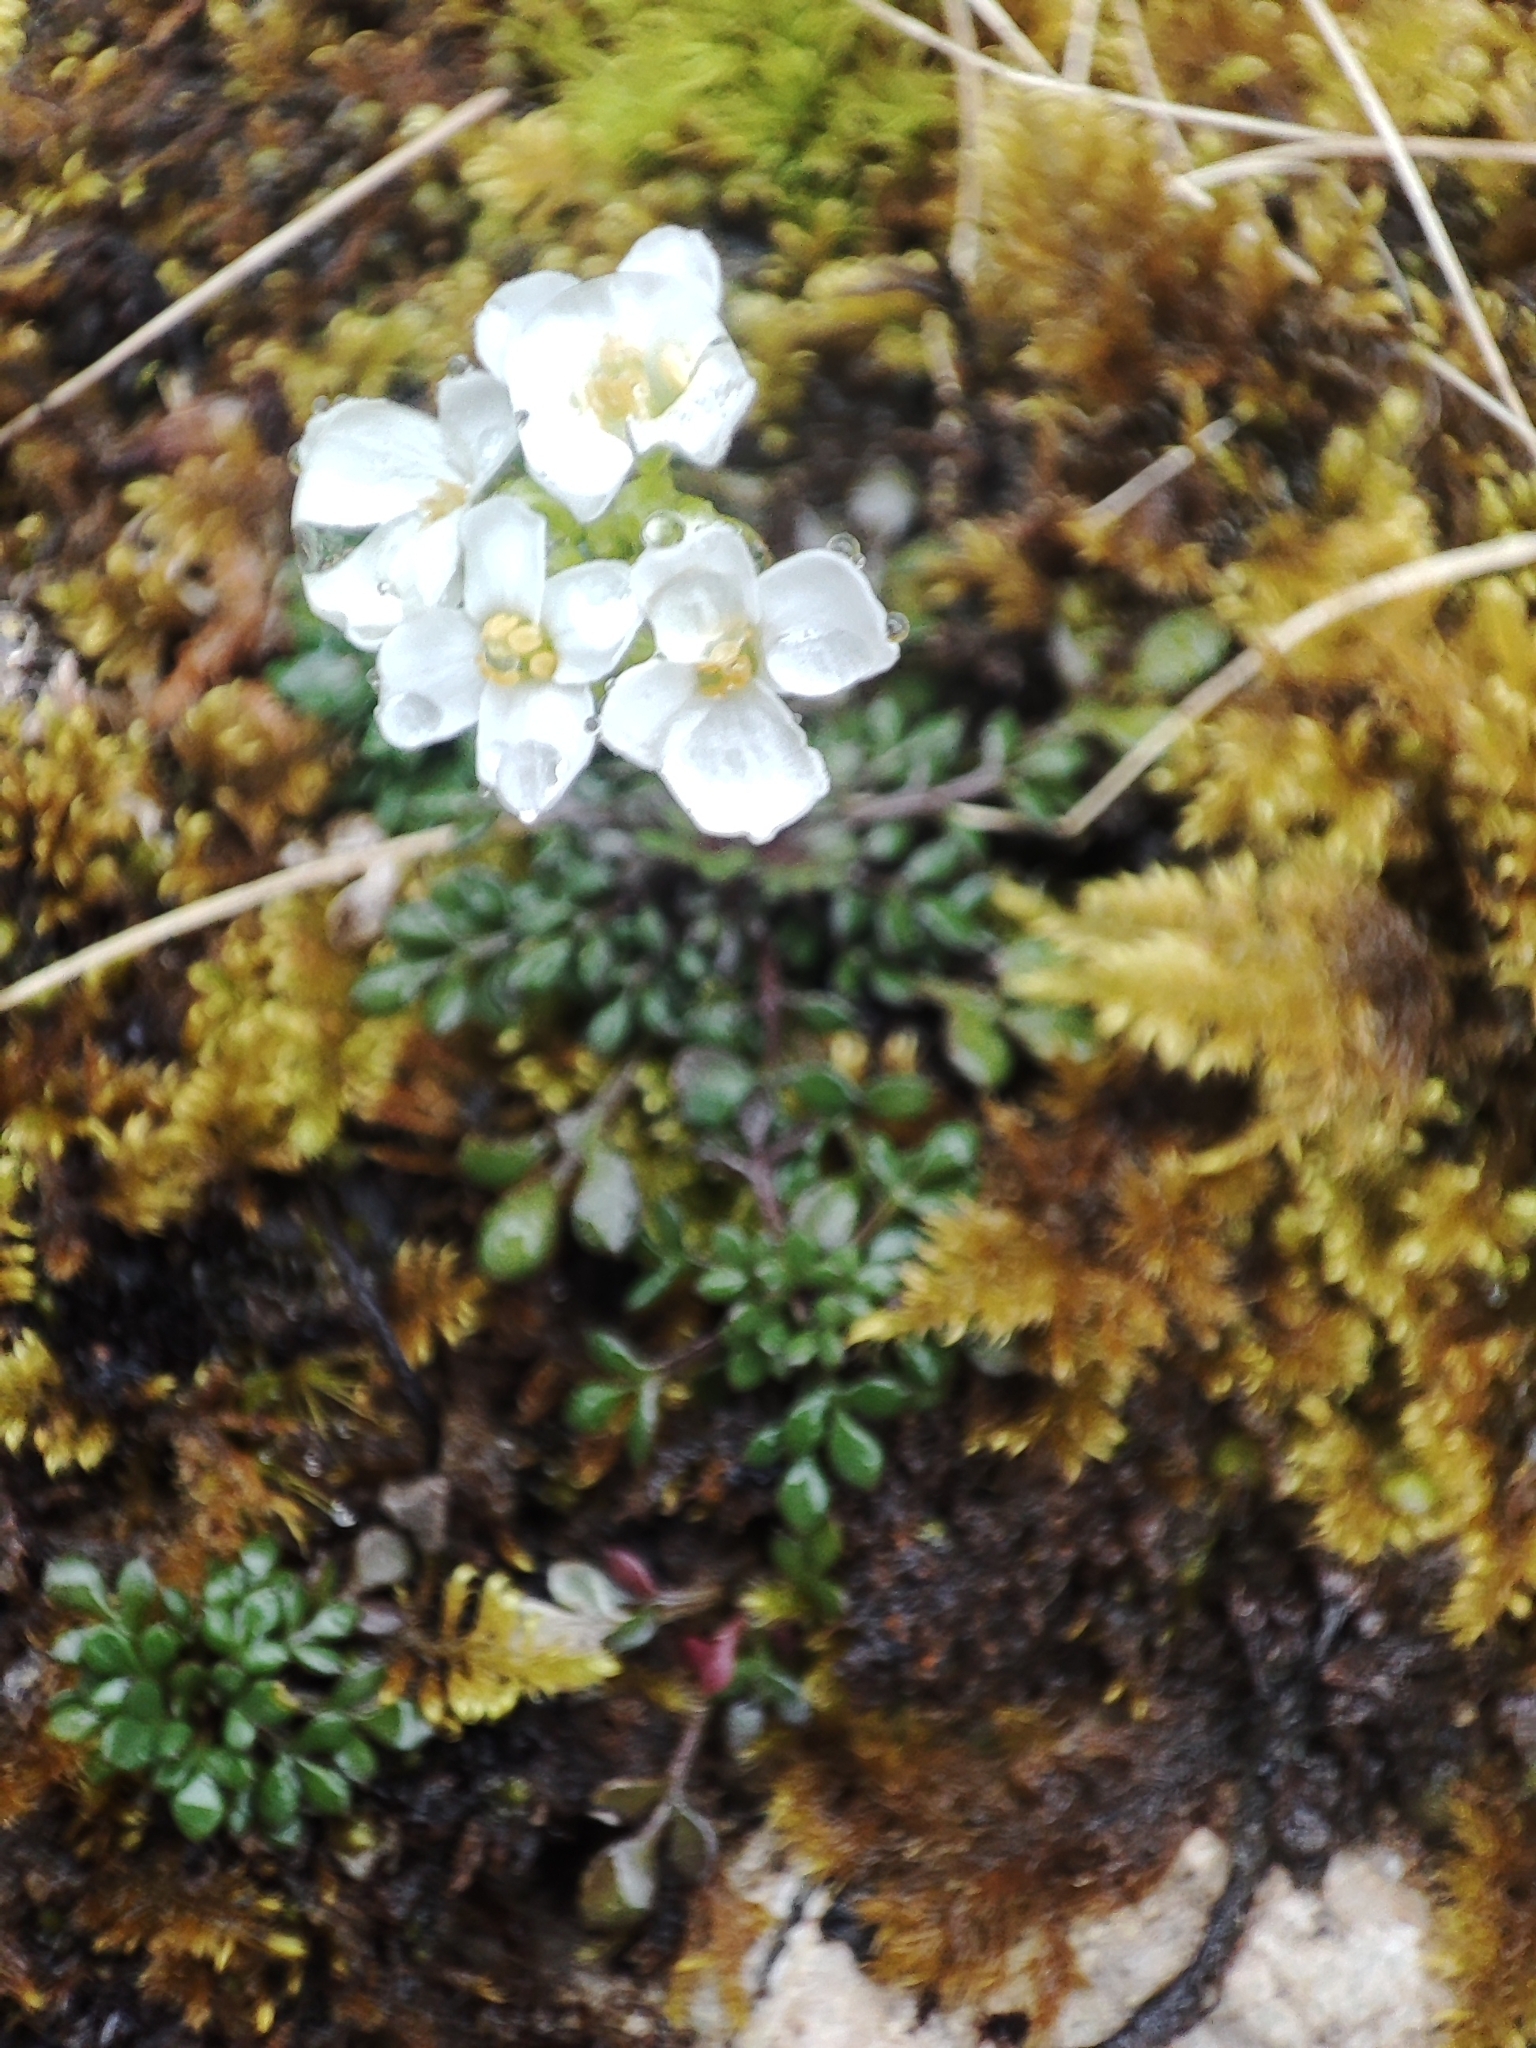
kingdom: Plantae
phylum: Tracheophyta
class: Magnoliopsida
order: Brassicales
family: Brassicaceae
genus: Hornungia
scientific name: Hornungia alpina
